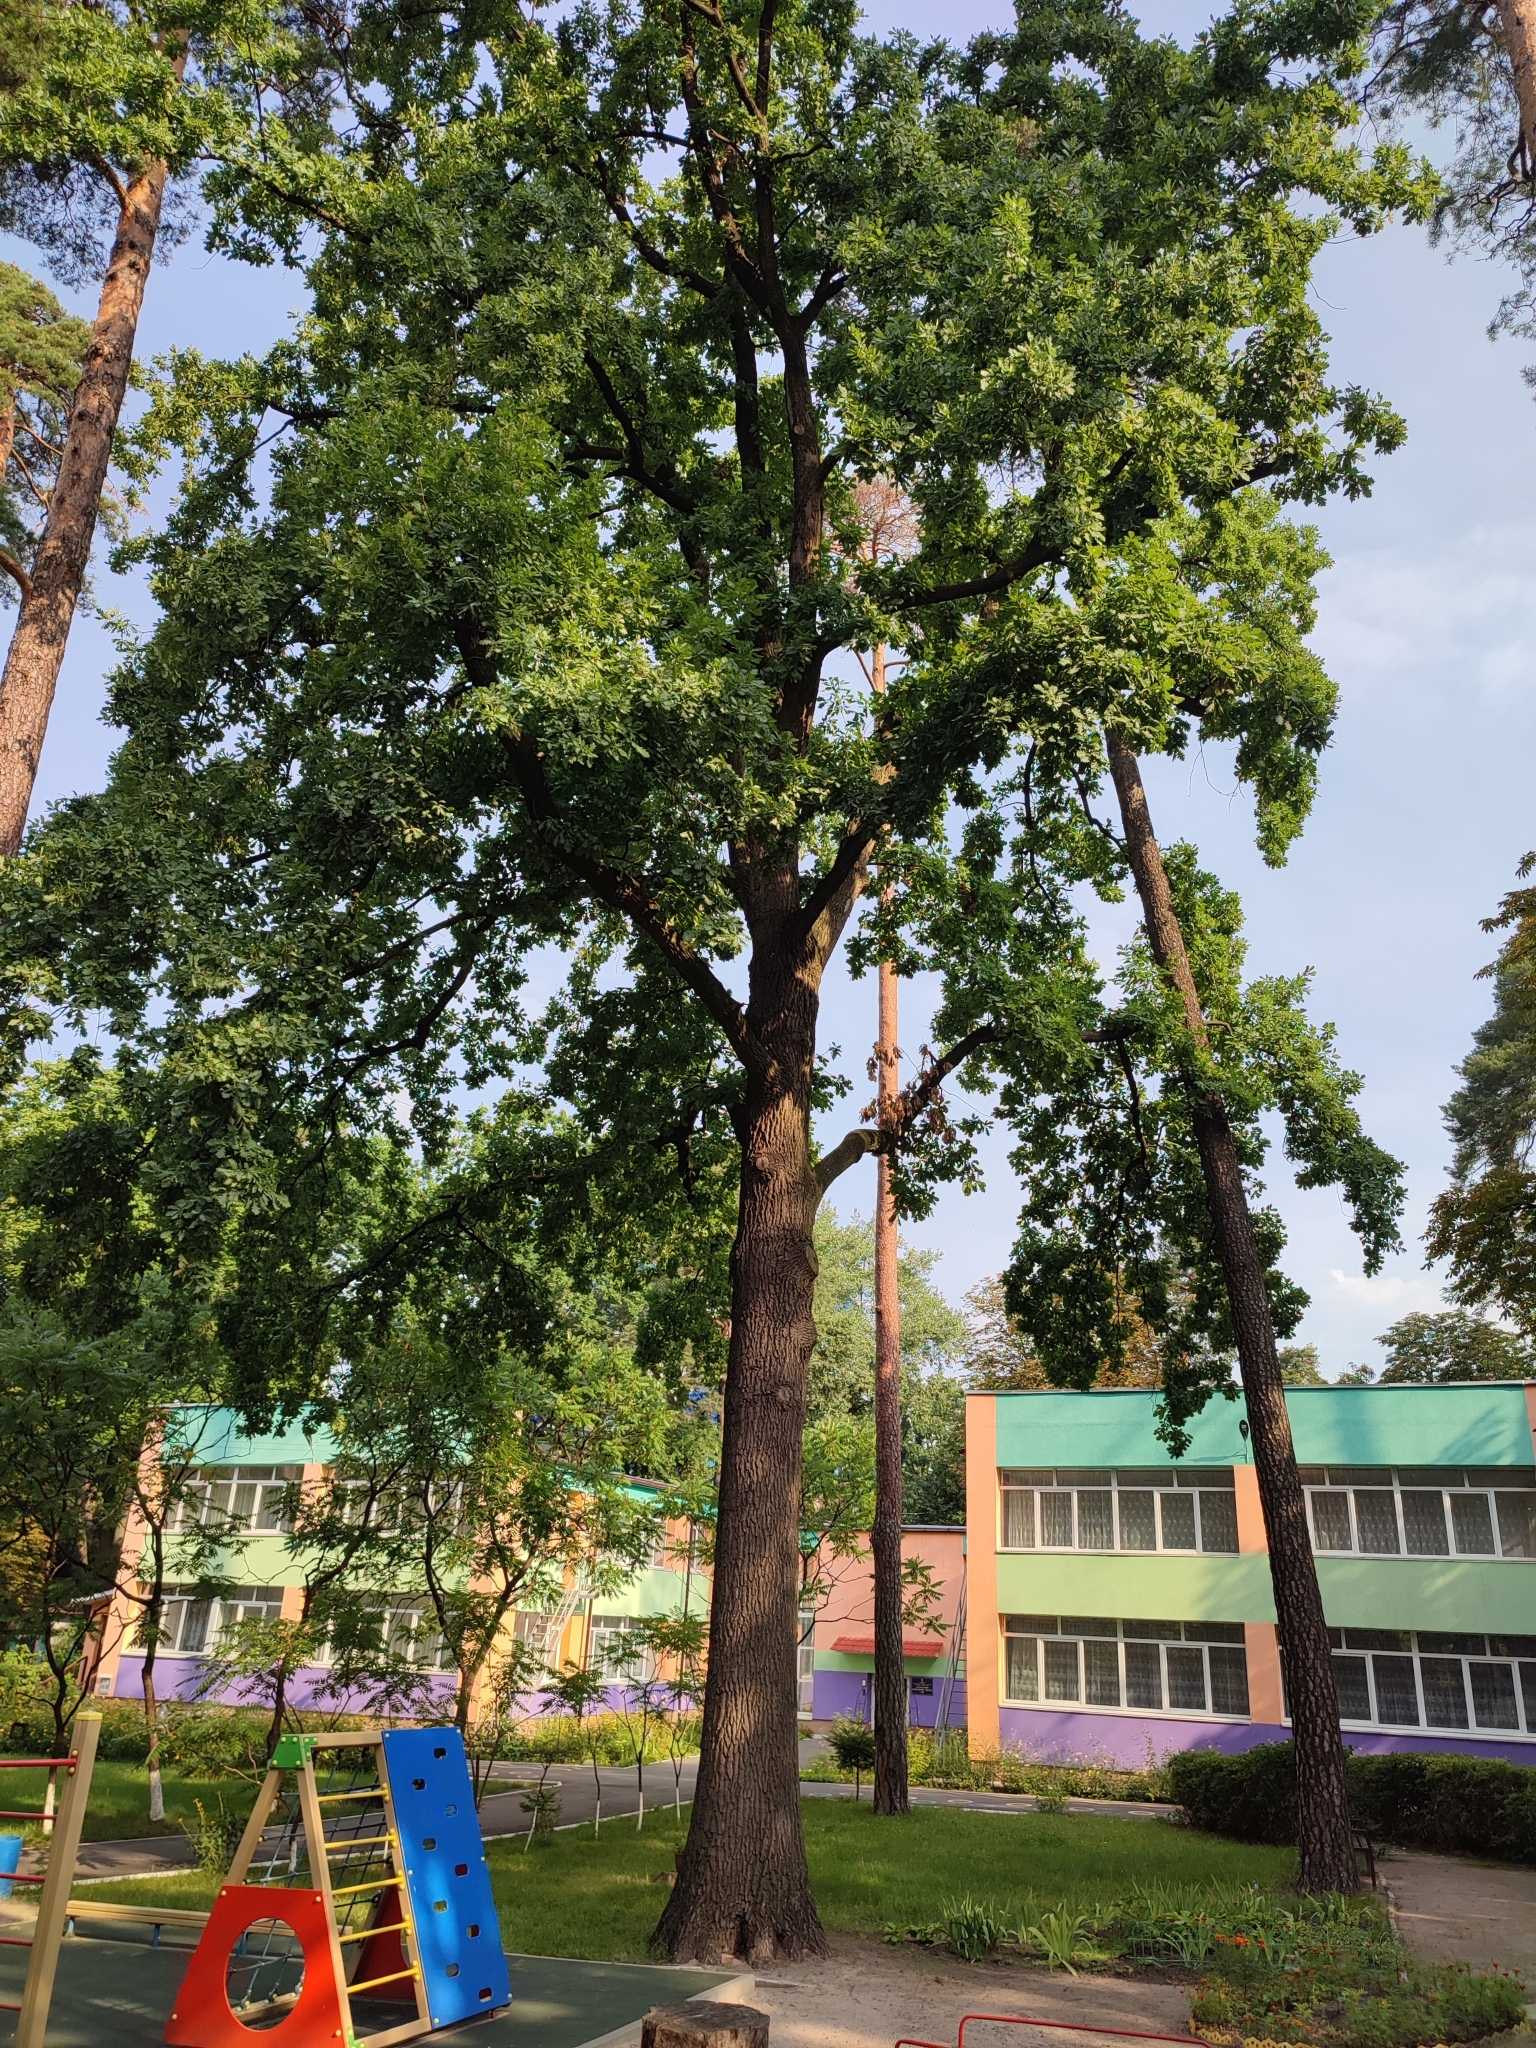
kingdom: Plantae
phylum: Tracheophyta
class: Magnoliopsida
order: Fagales
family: Fagaceae
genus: Quercus
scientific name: Quercus robur
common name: Pedunculate oak
